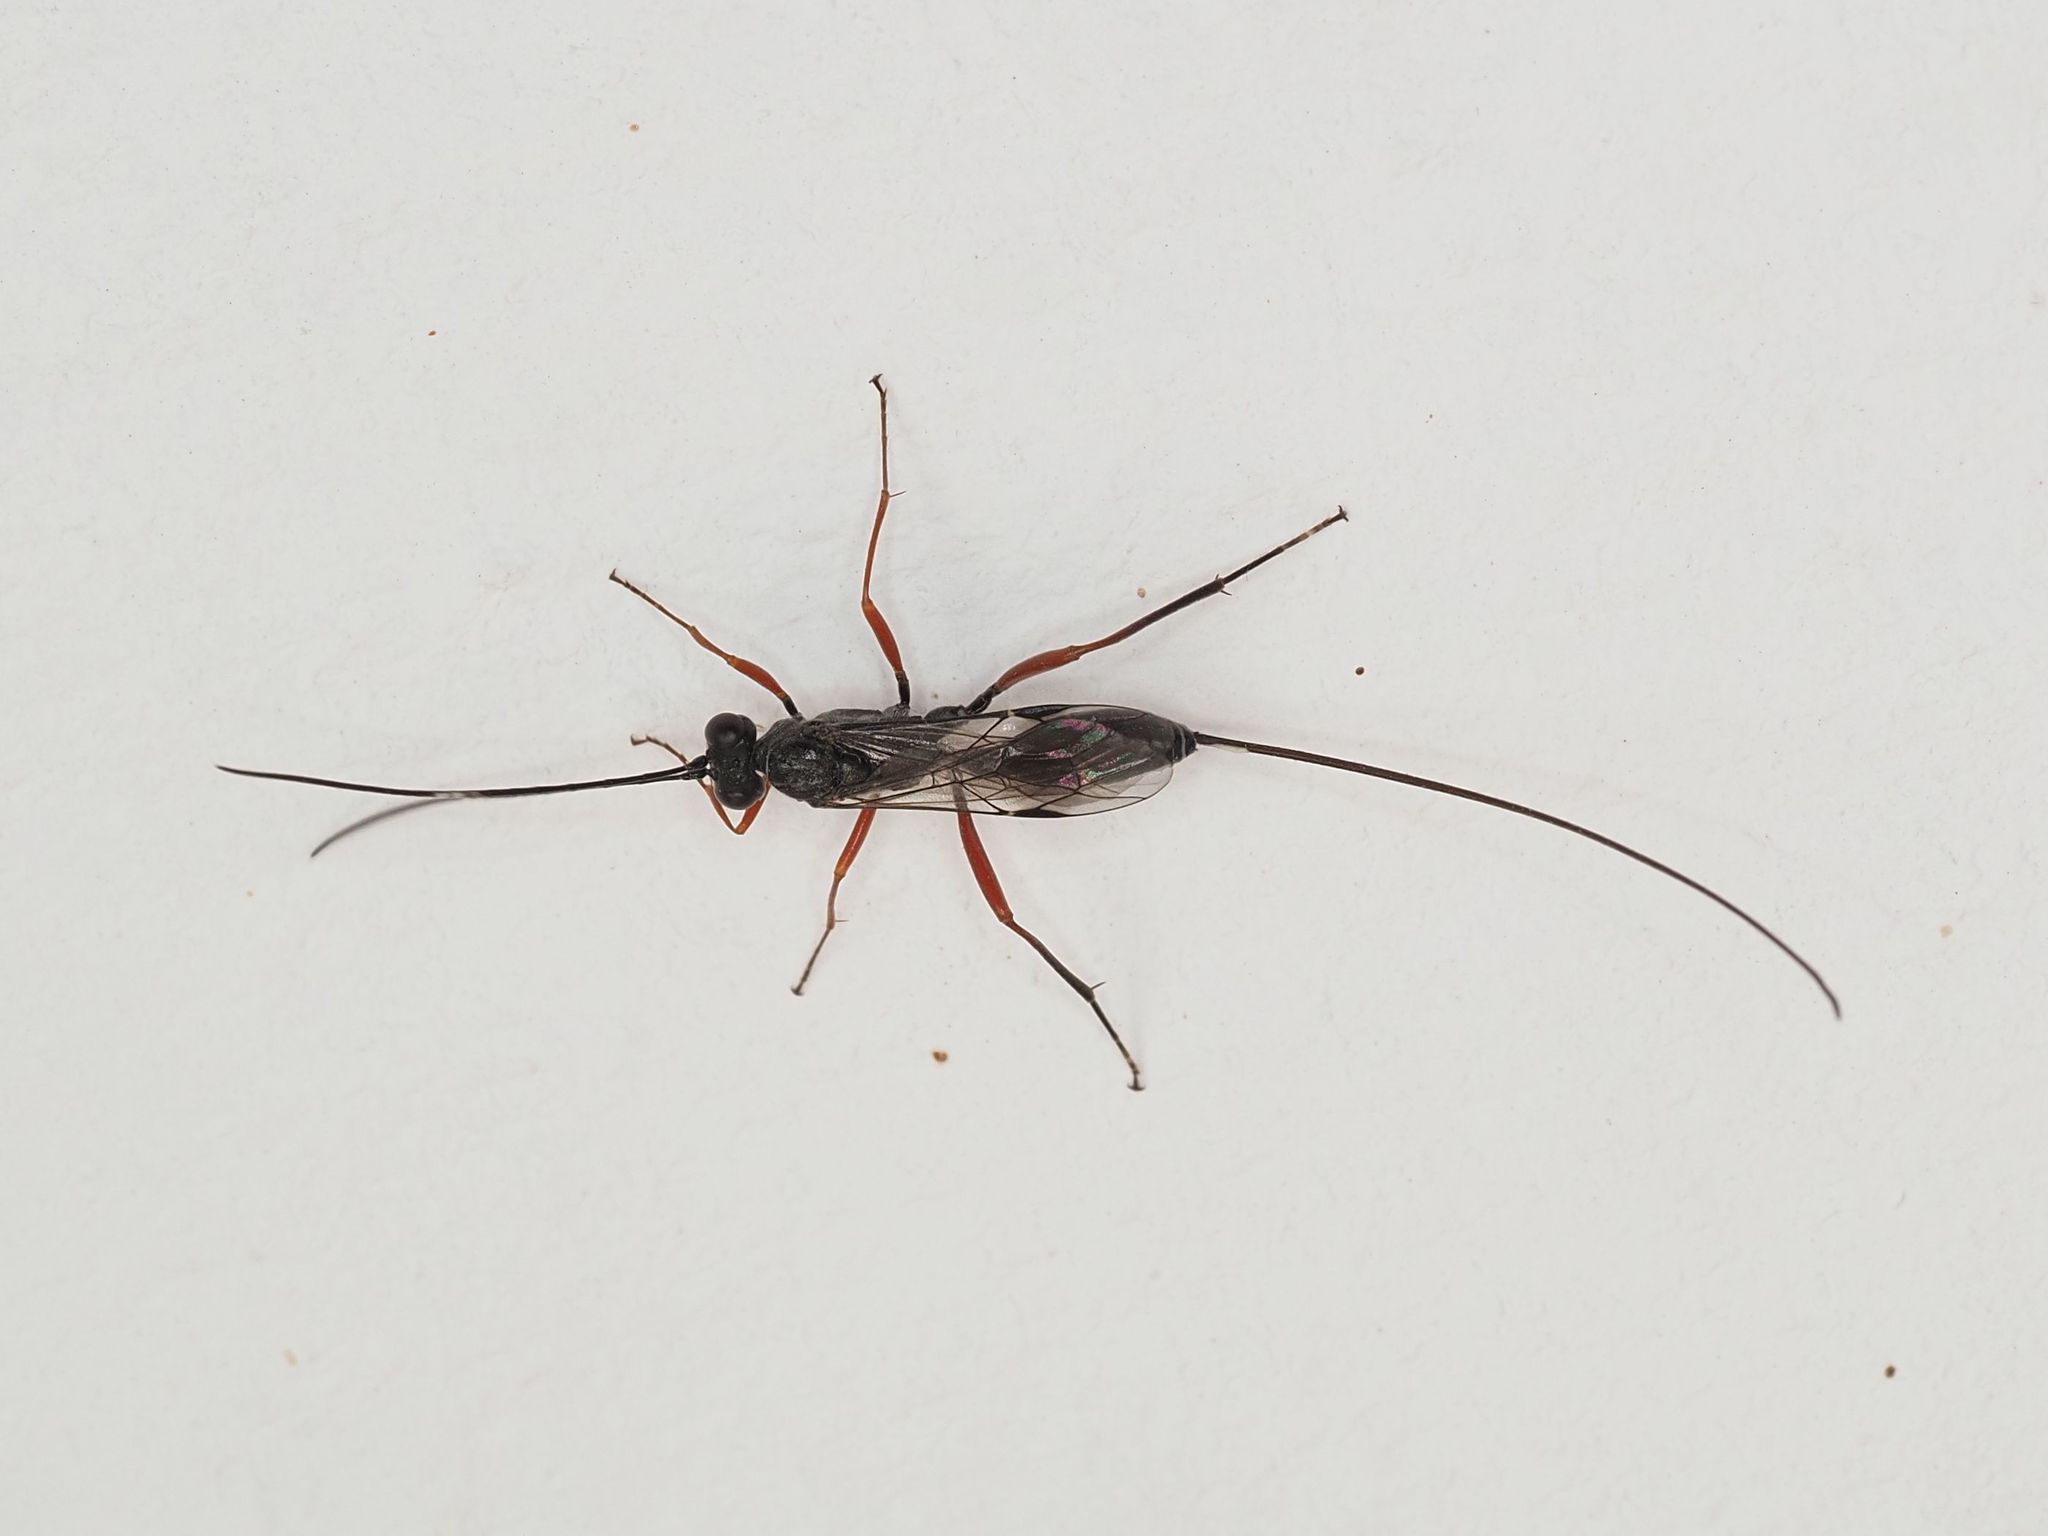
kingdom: Animalia
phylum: Arthropoda
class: Insecta
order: Hymenoptera
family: Ichneumonidae
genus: Stenarella
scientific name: Stenarella domator
